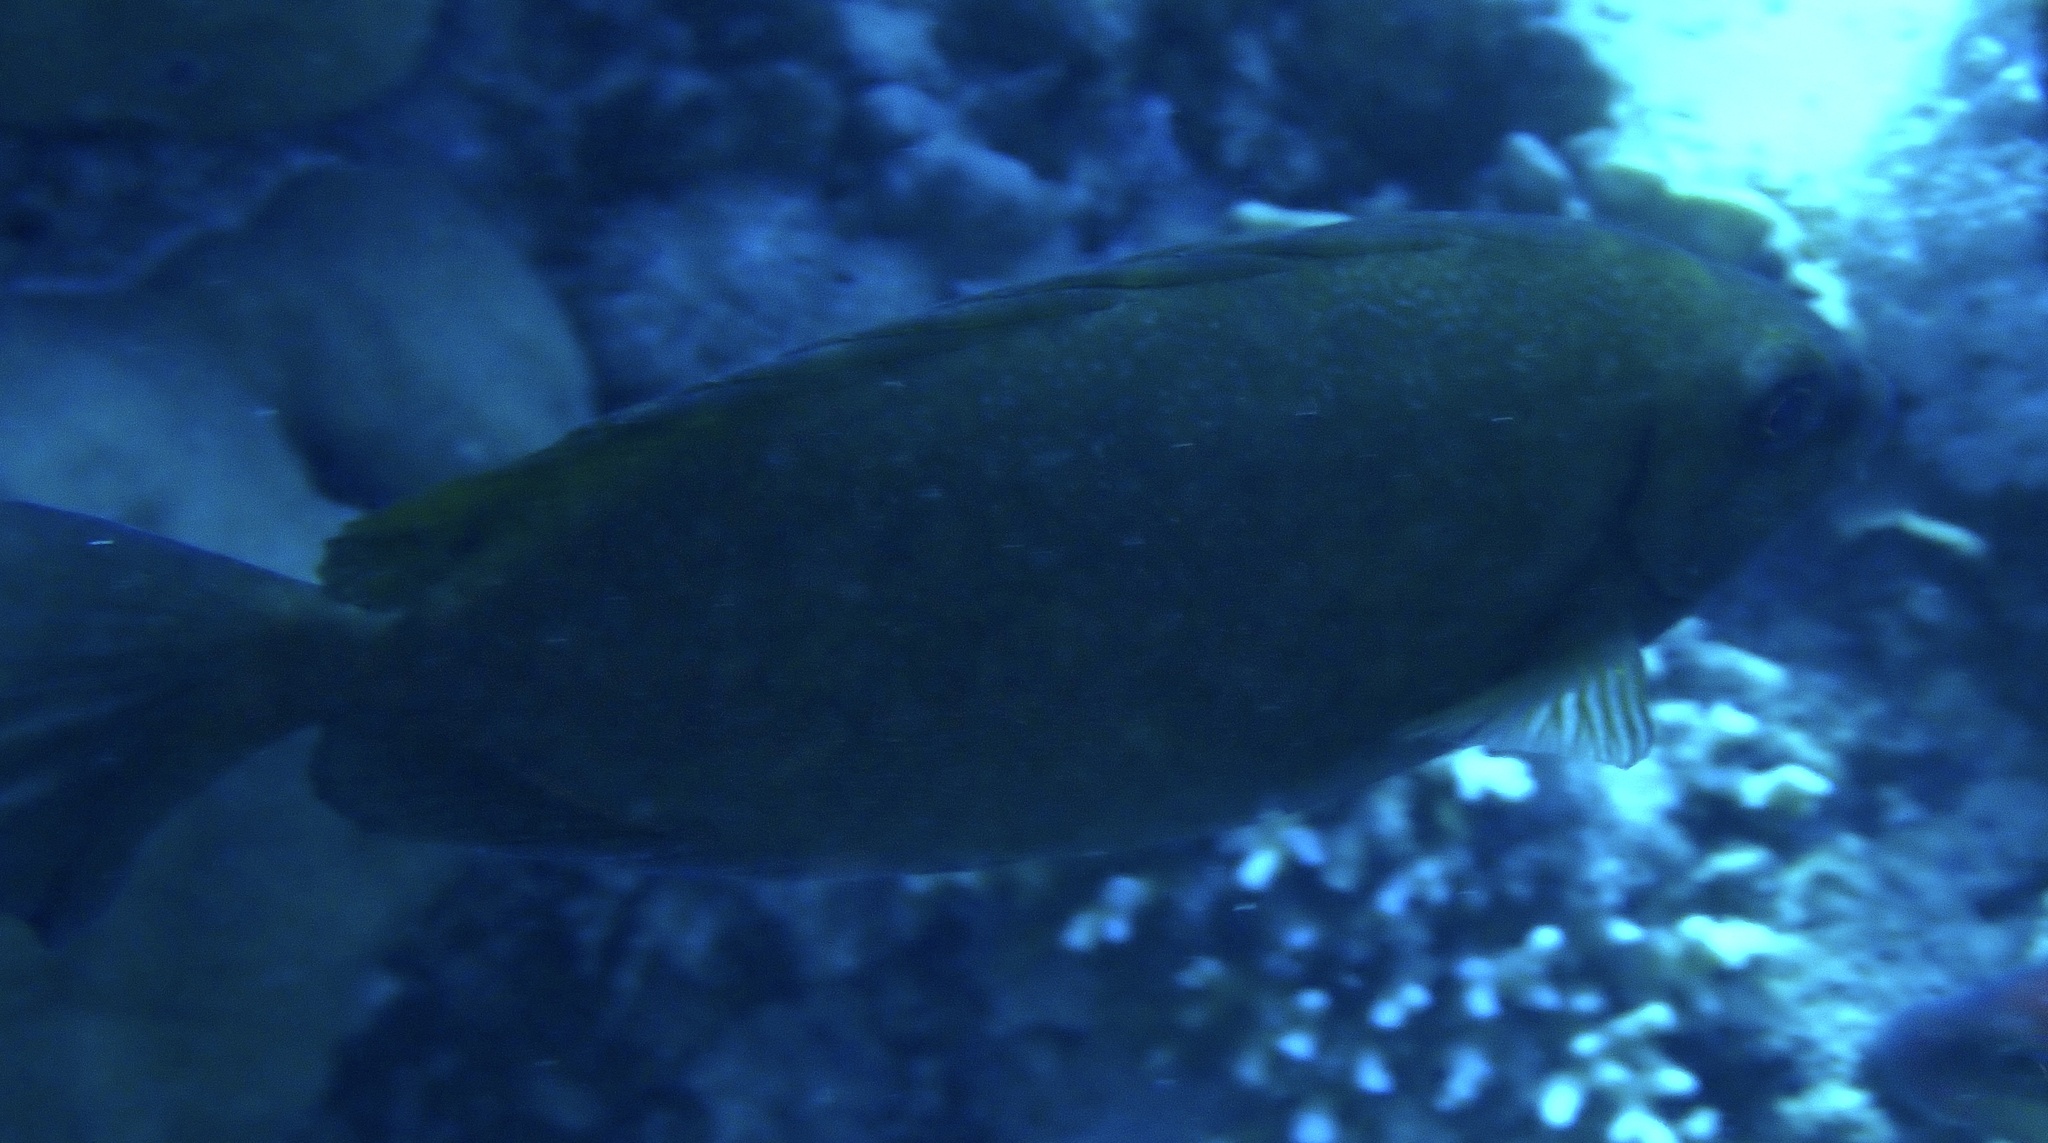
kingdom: Animalia
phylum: Chordata
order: Perciformes
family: Siganidae
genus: Siganus
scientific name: Siganus luridus
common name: Dusky spinefoot
